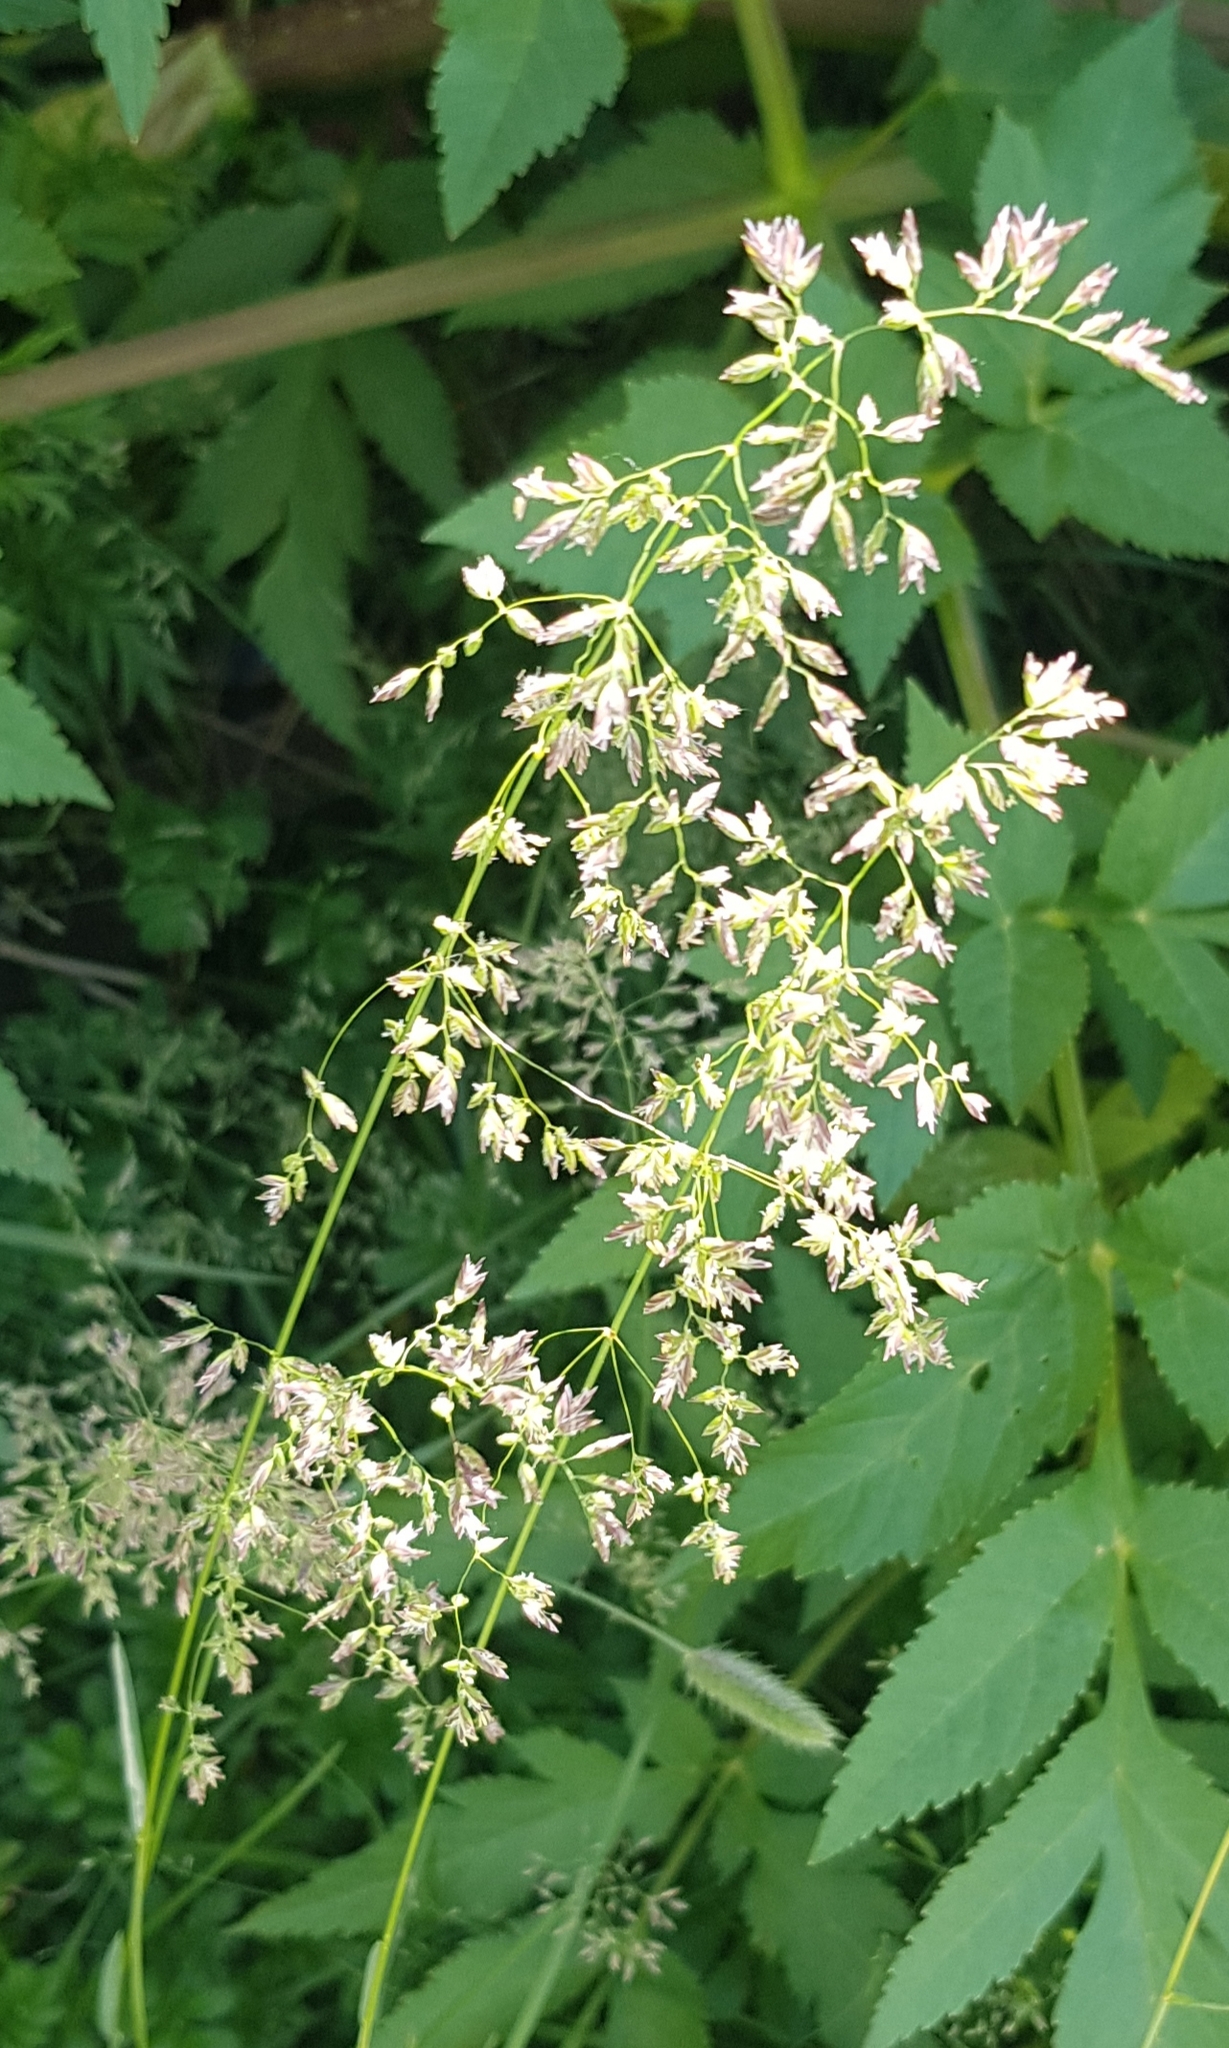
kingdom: Plantae
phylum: Tracheophyta
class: Magnoliopsida
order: Caryophyllales
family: Polygonaceae
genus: Koenigia
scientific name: Koenigia alpina
